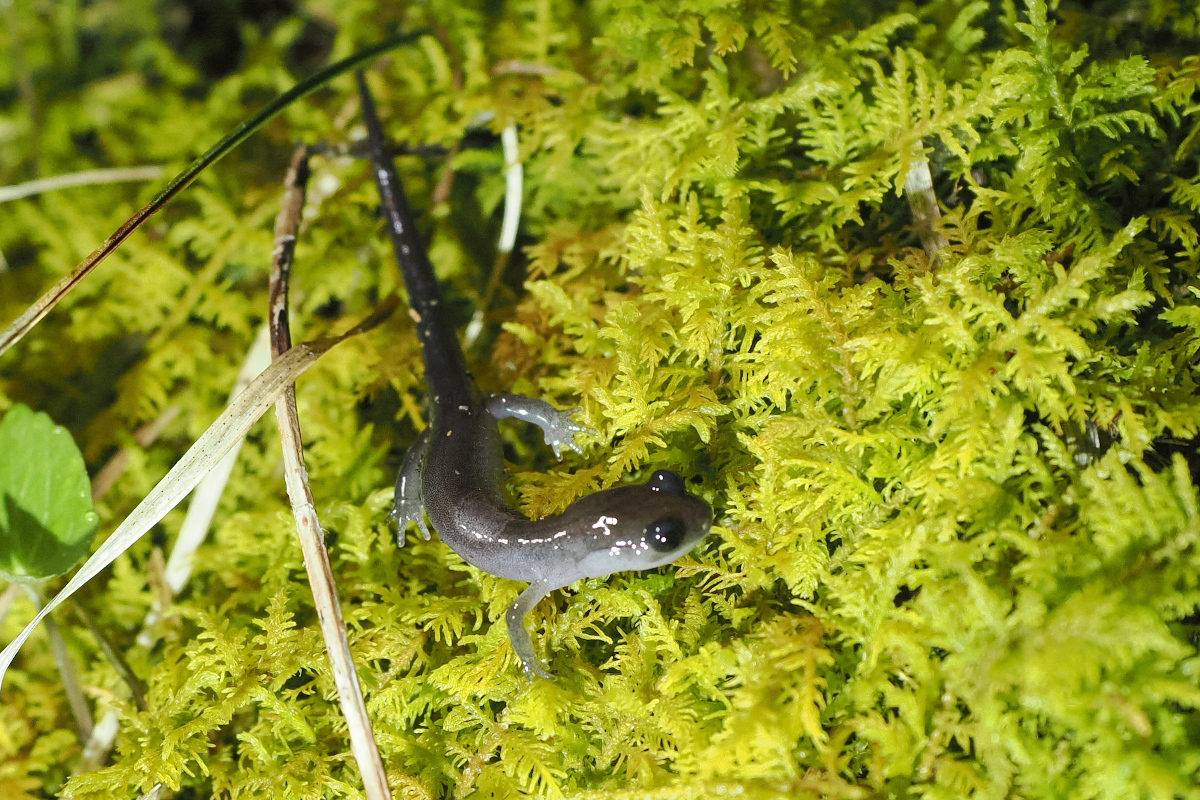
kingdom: Animalia
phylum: Chordata
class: Amphibia
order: Caudata
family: Plethodontidae
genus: Plethodon
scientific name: Plethodon montanus
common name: Northern gray-cheeked salamander
